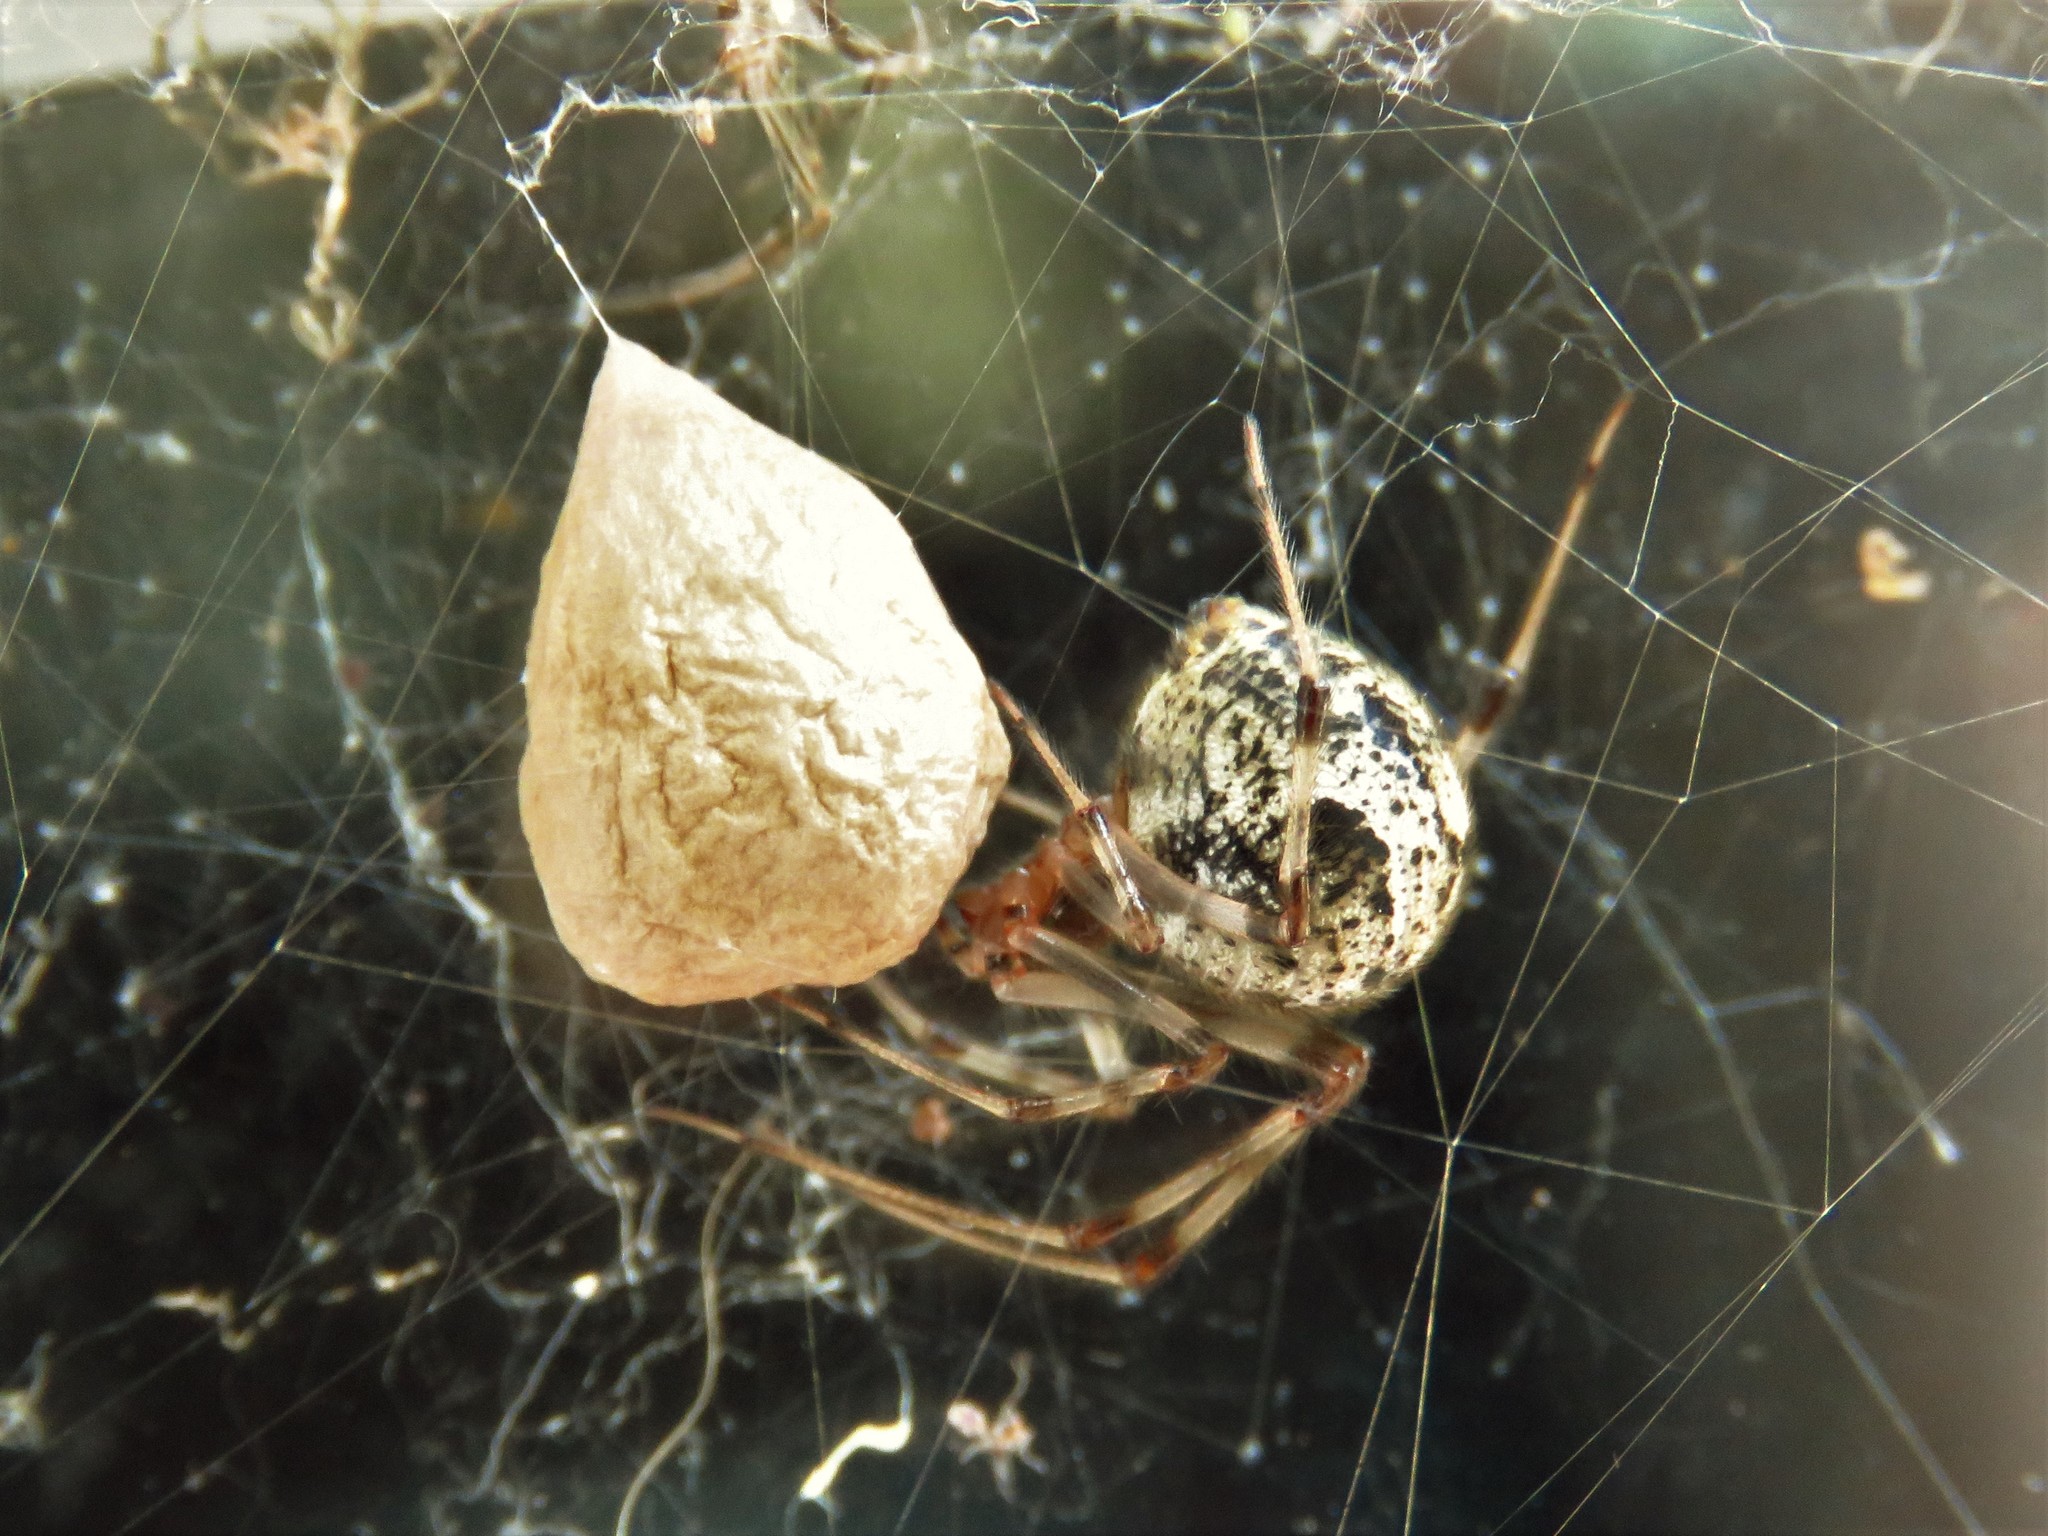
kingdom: Animalia
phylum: Arthropoda
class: Arachnida
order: Araneae
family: Theridiidae
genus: Parasteatoda
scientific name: Parasteatoda tepidariorum
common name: Common house spider
